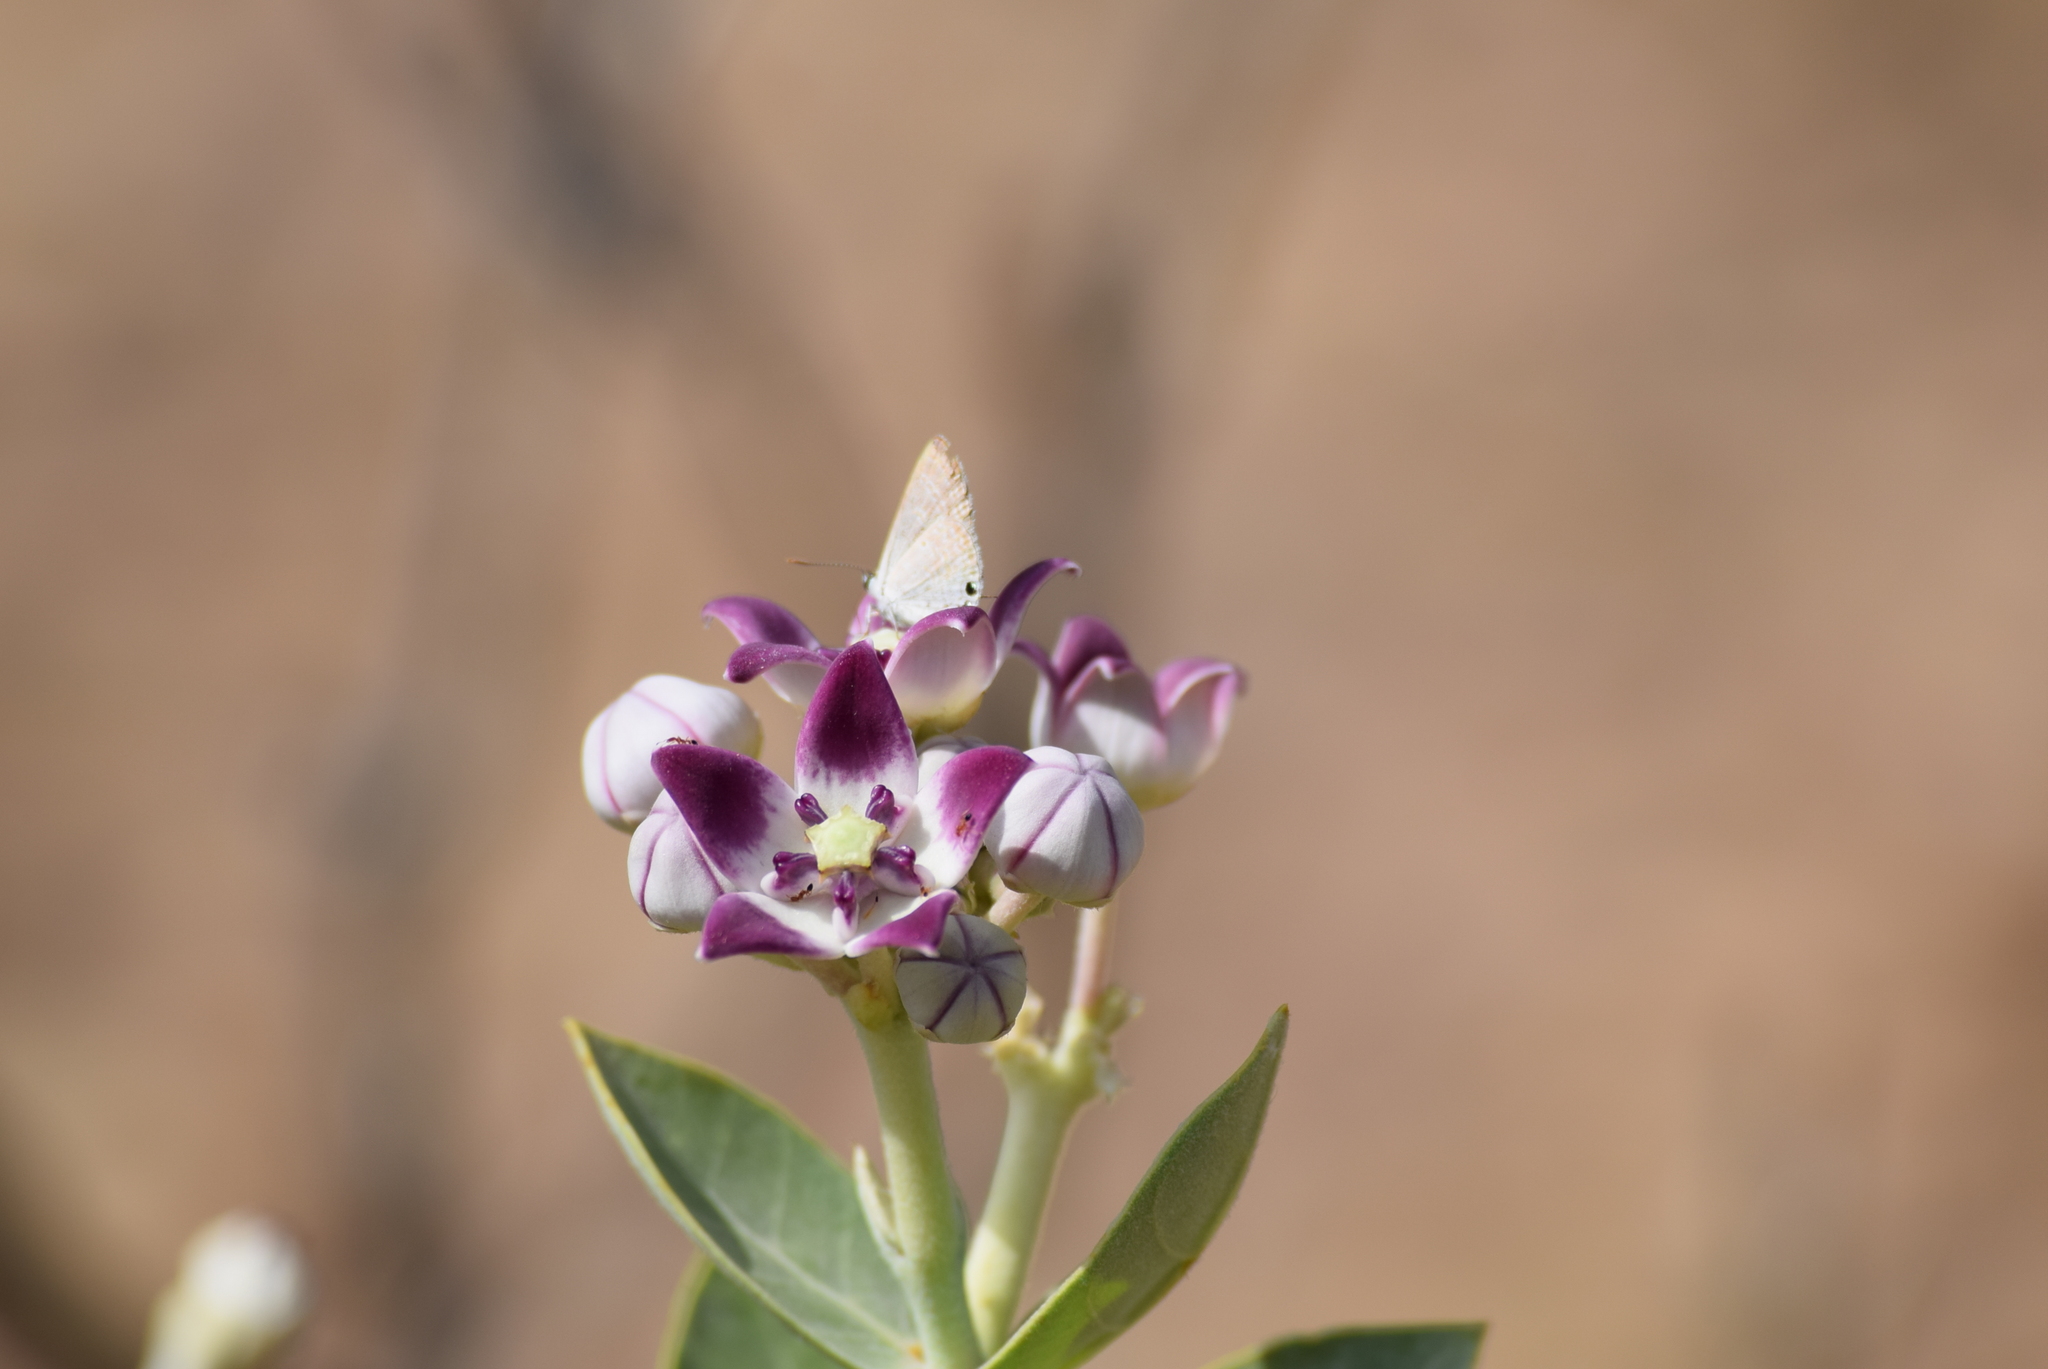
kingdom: Plantae
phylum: Tracheophyta
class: Magnoliopsida
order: Gentianales
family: Apocynaceae
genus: Calotropis
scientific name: Calotropis procera
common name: Roostertree
